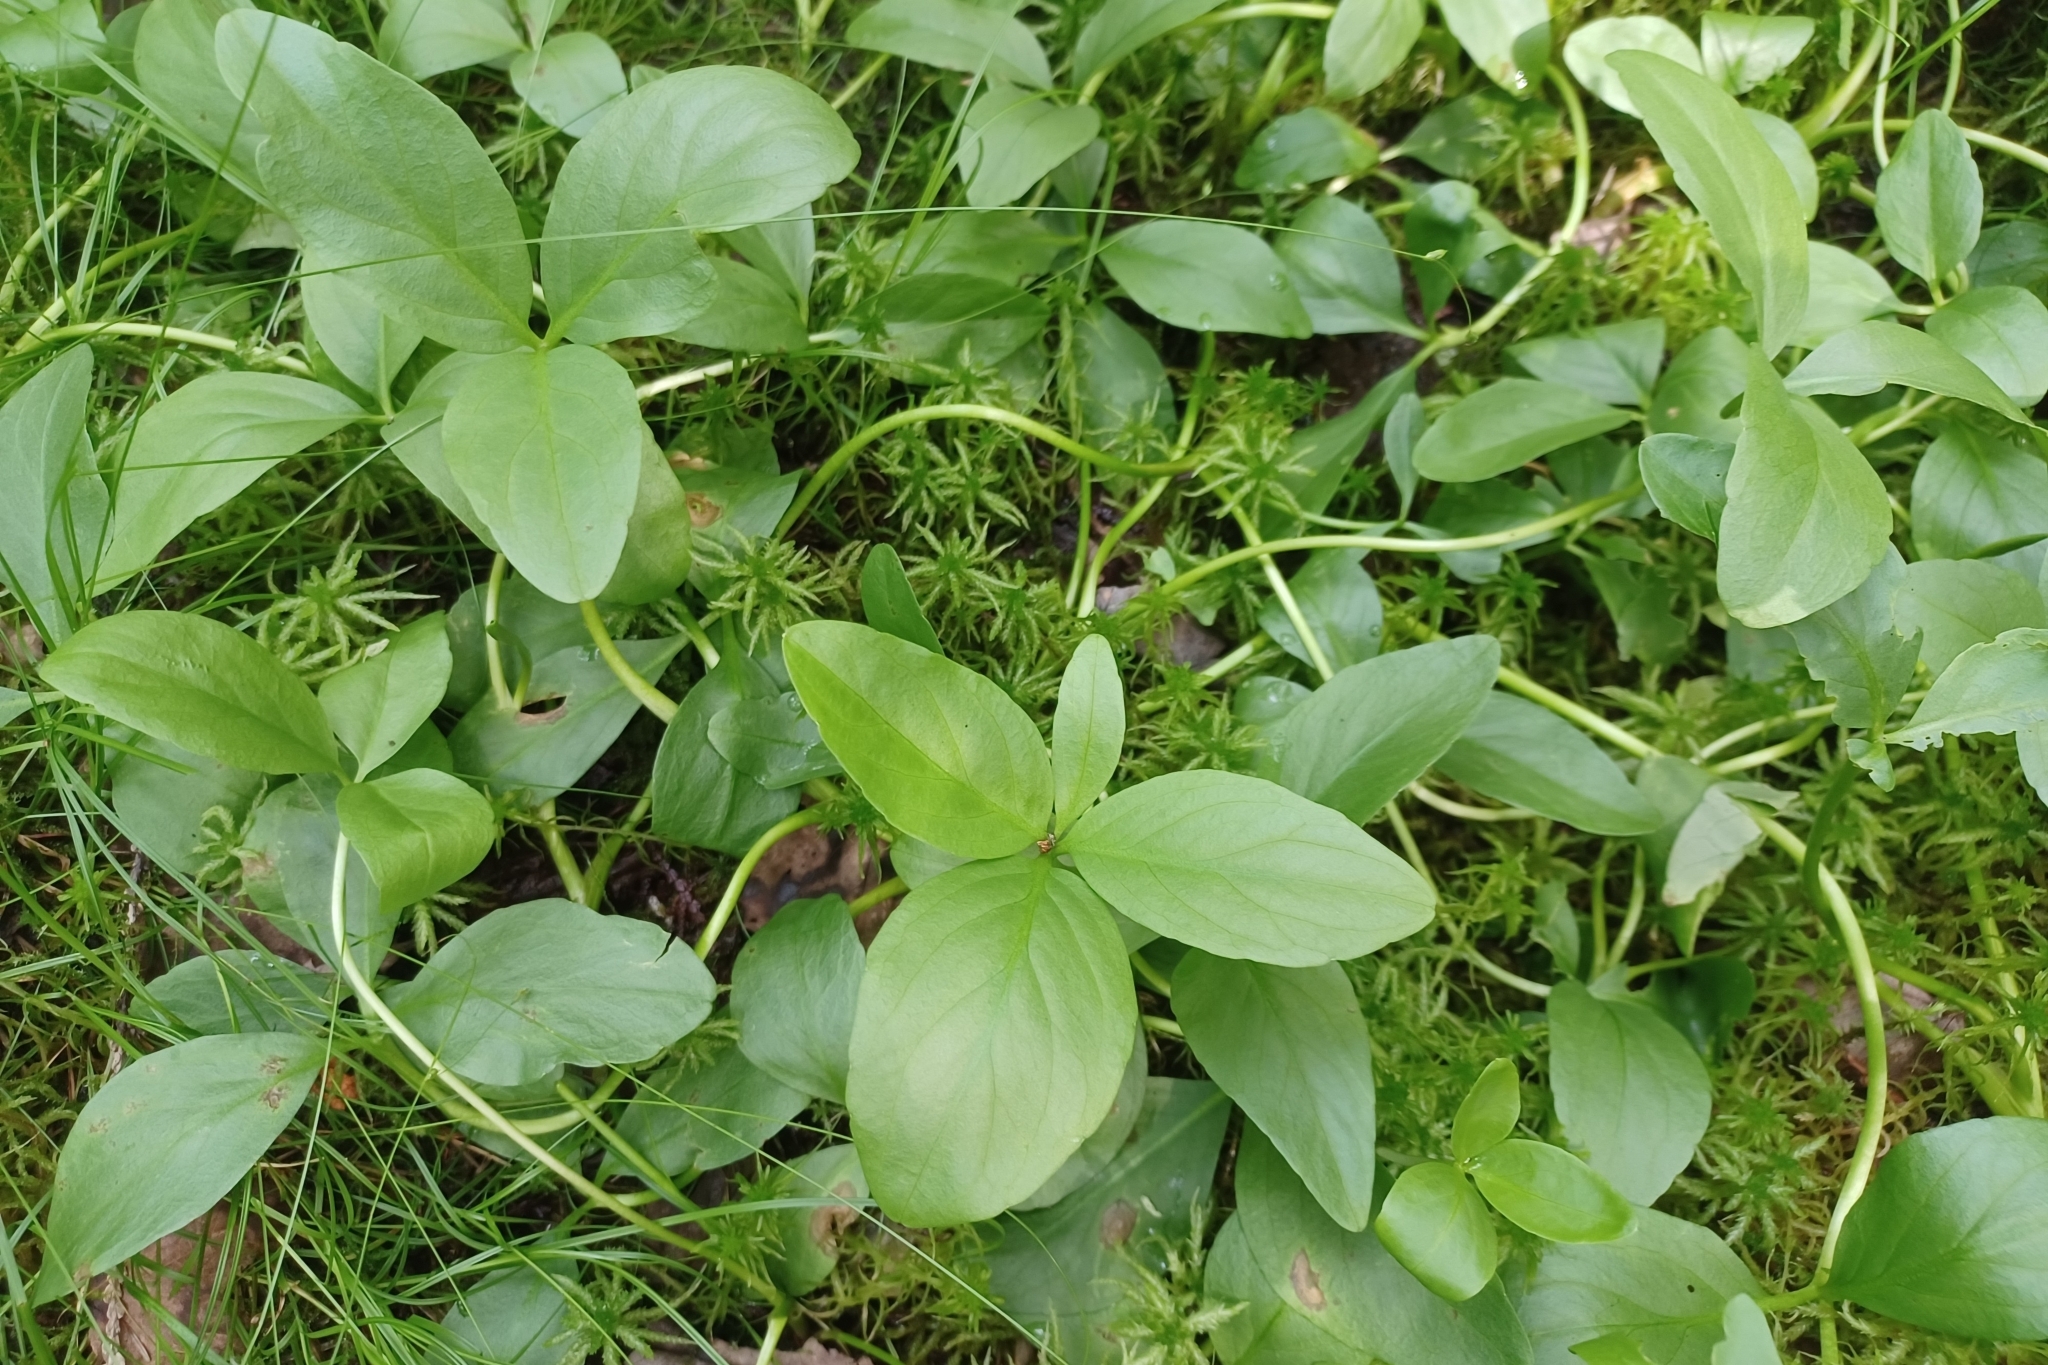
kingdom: Plantae
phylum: Tracheophyta
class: Magnoliopsida
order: Asterales
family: Menyanthaceae
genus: Menyanthes
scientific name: Menyanthes trifoliata
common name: Bogbean
